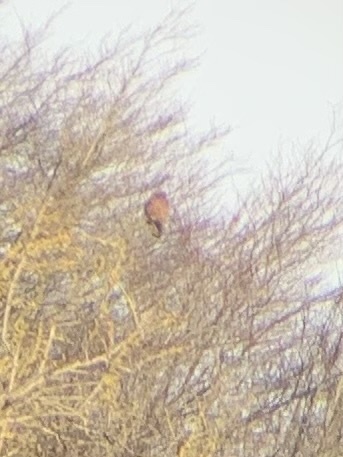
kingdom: Animalia
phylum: Chordata
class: Aves
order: Falconiformes
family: Falconidae
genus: Falco
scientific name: Falco tinnunculus
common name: Common kestrel
